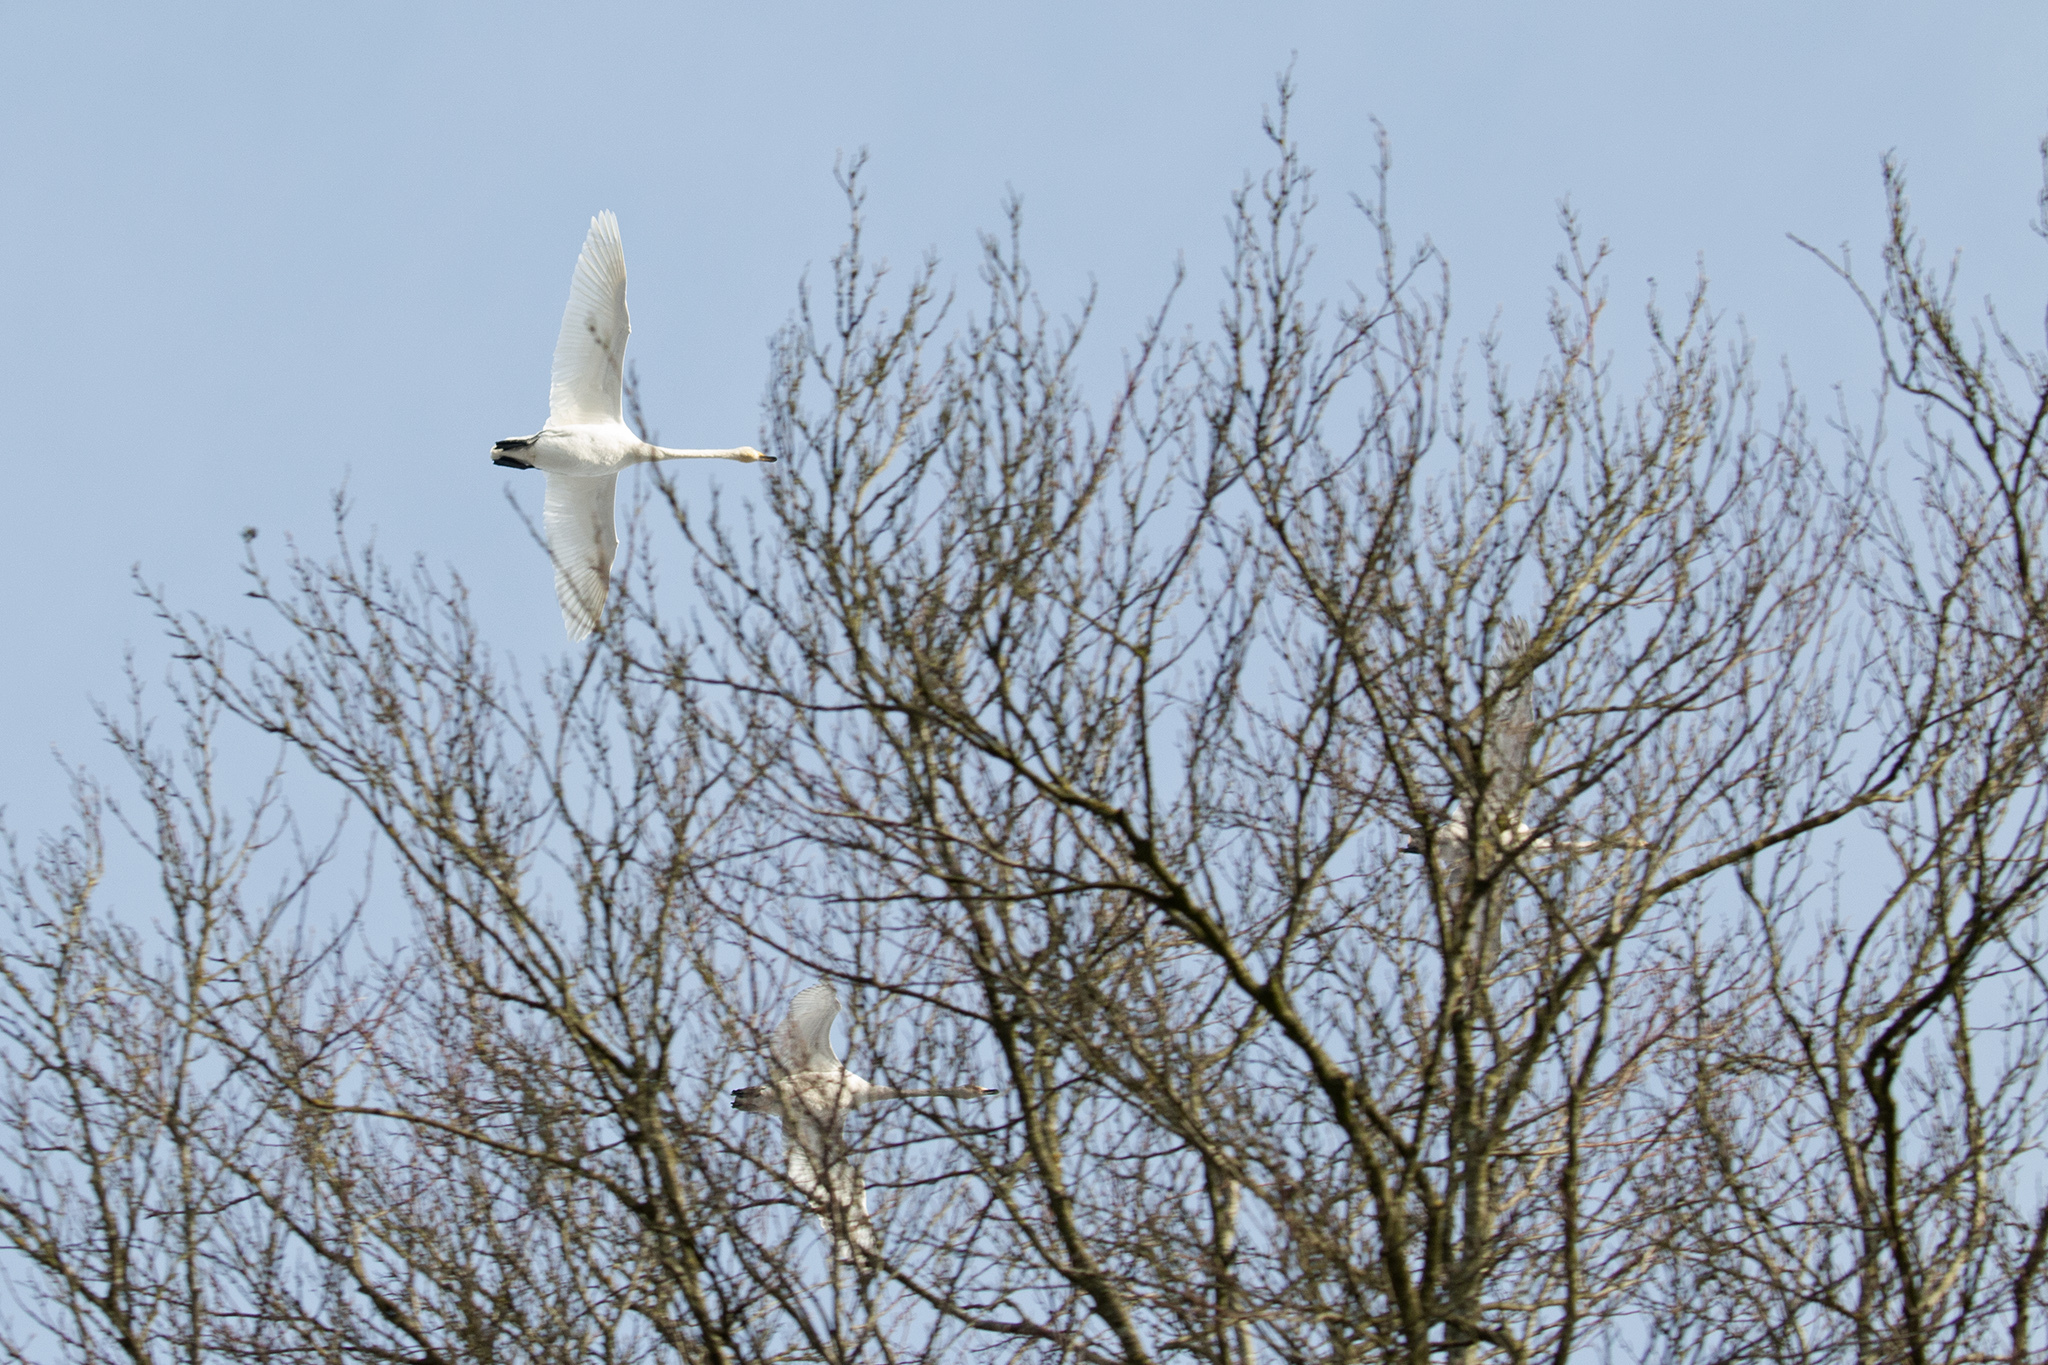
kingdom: Animalia
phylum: Chordata
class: Aves
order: Anseriformes
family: Anatidae
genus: Cygnus
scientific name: Cygnus cygnus
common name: Whooper swan
